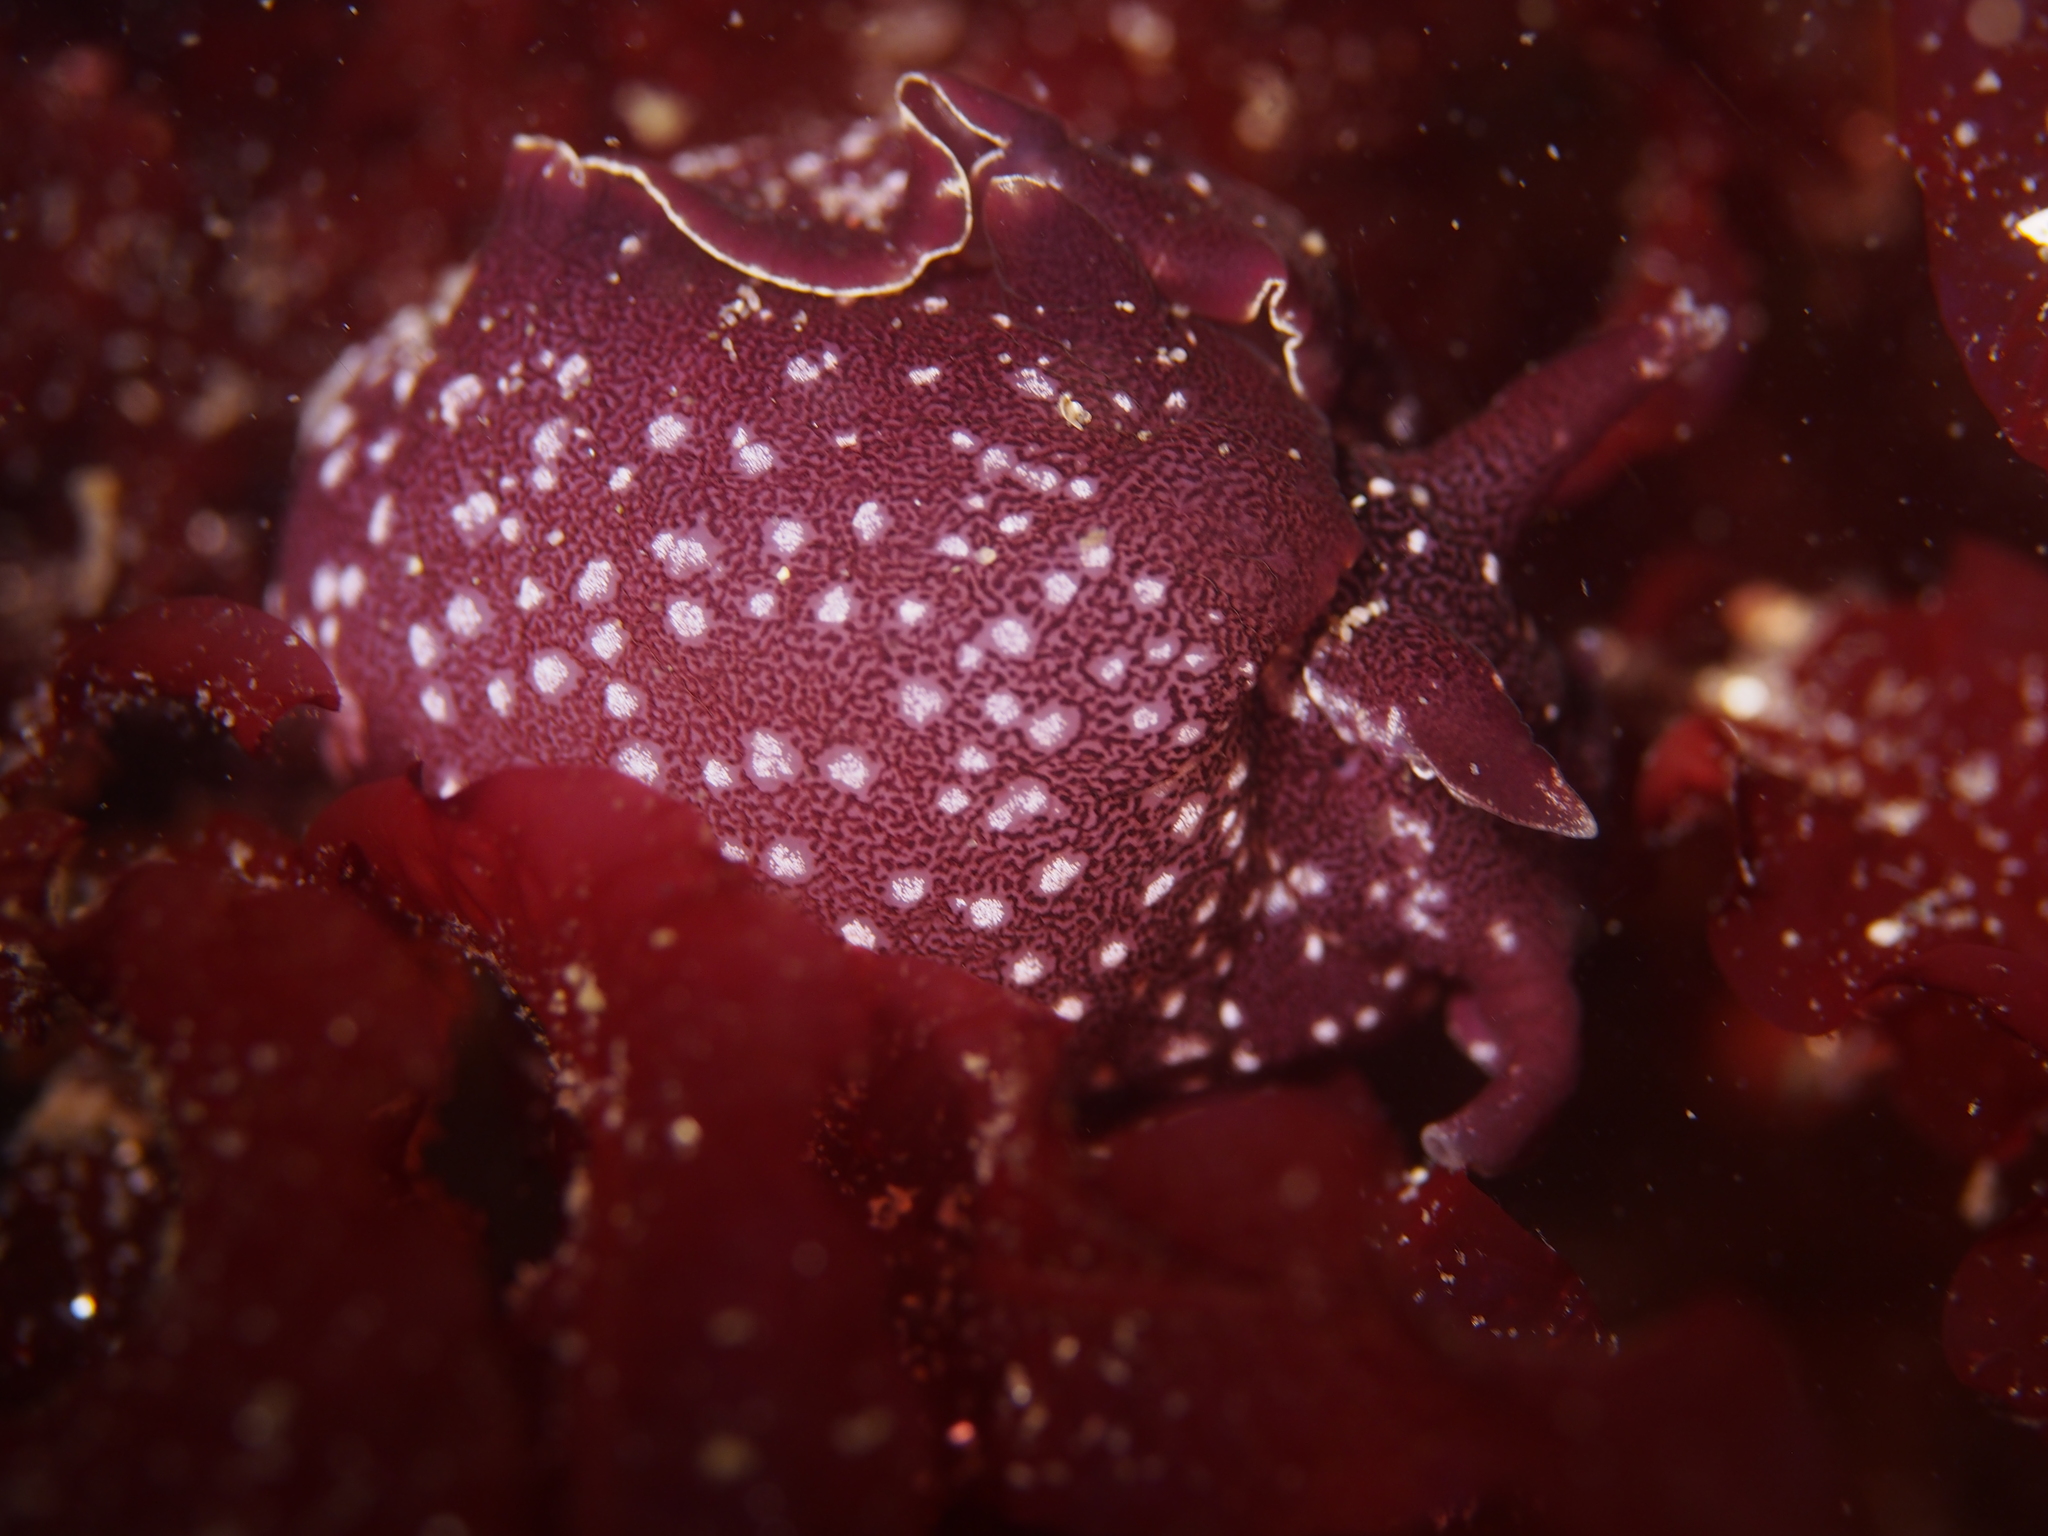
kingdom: Animalia
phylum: Mollusca
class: Gastropoda
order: Aplysiida
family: Aplysiidae
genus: Aplysia
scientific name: Aplysia punctata
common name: Common sea hare
